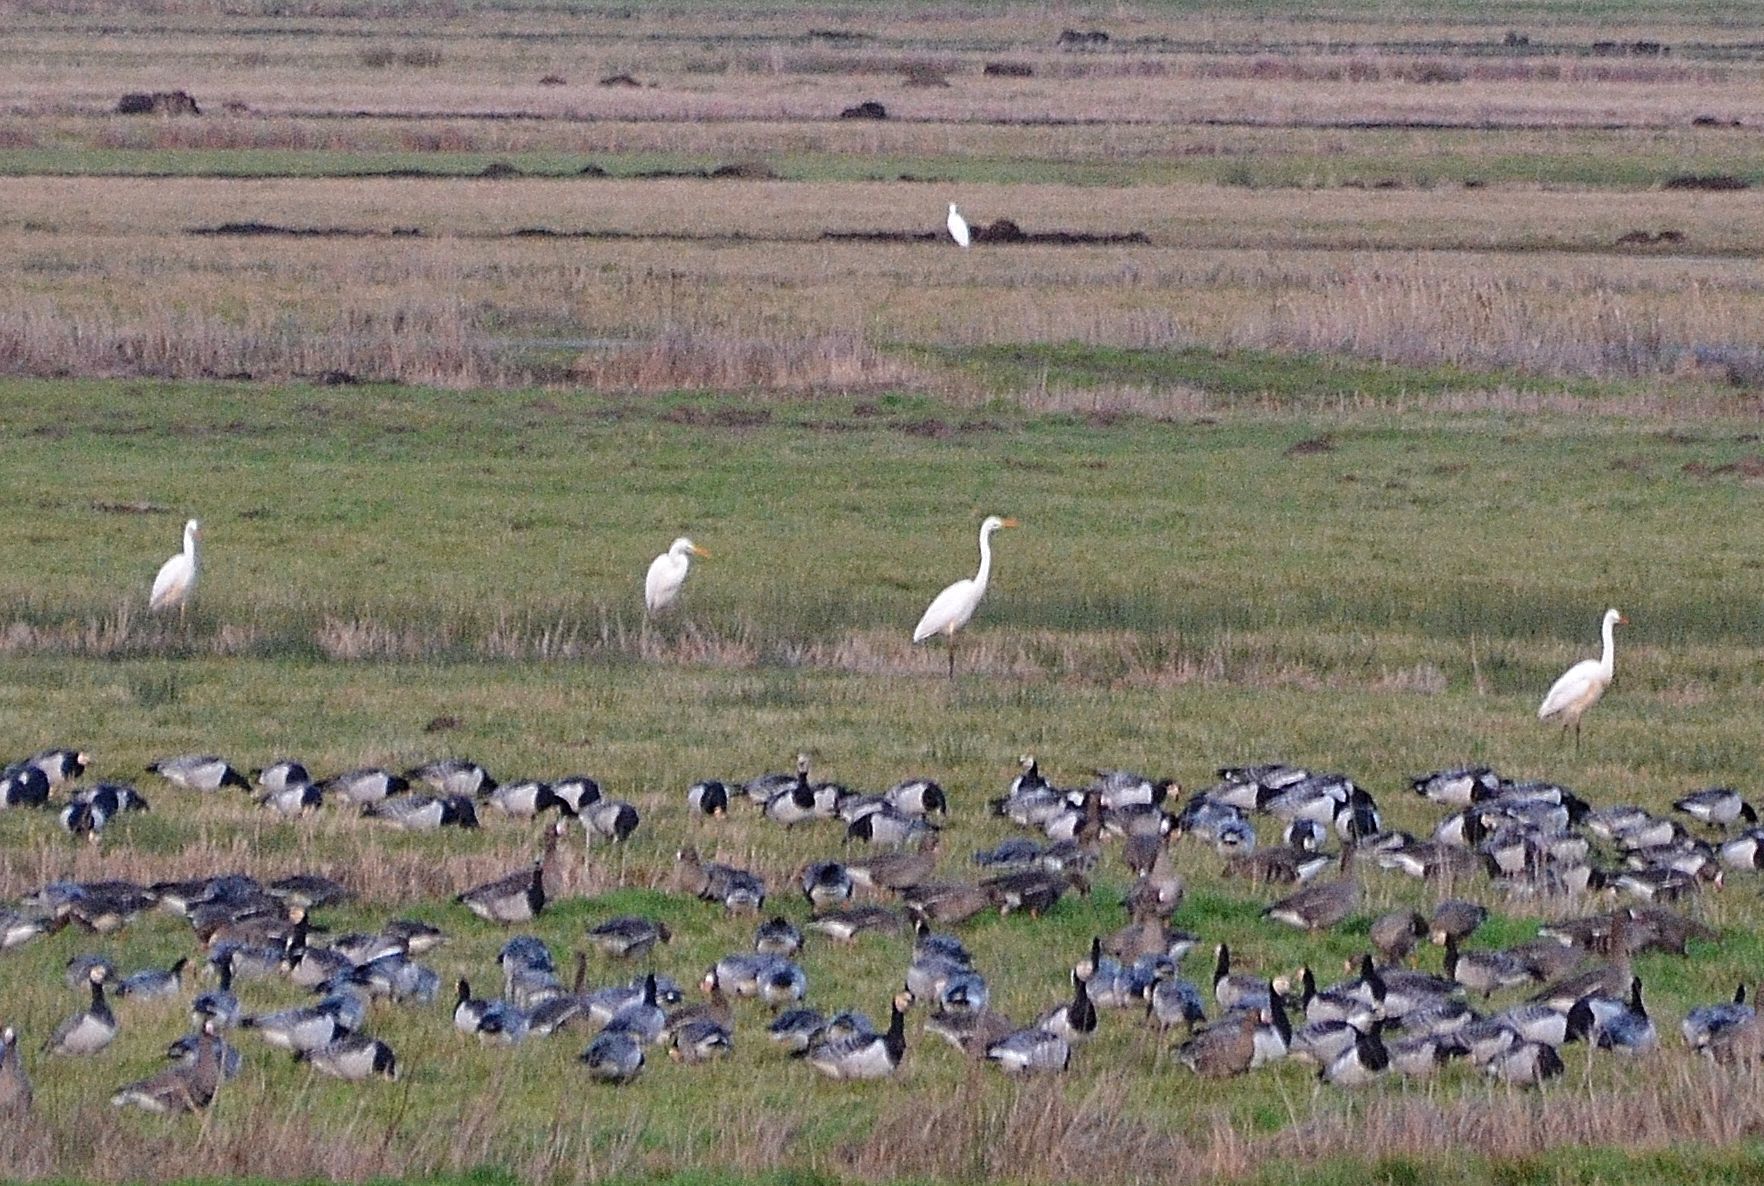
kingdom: Animalia
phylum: Chordata
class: Aves
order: Pelecaniformes
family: Ardeidae
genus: Ardea
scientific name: Ardea alba
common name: Great egret
